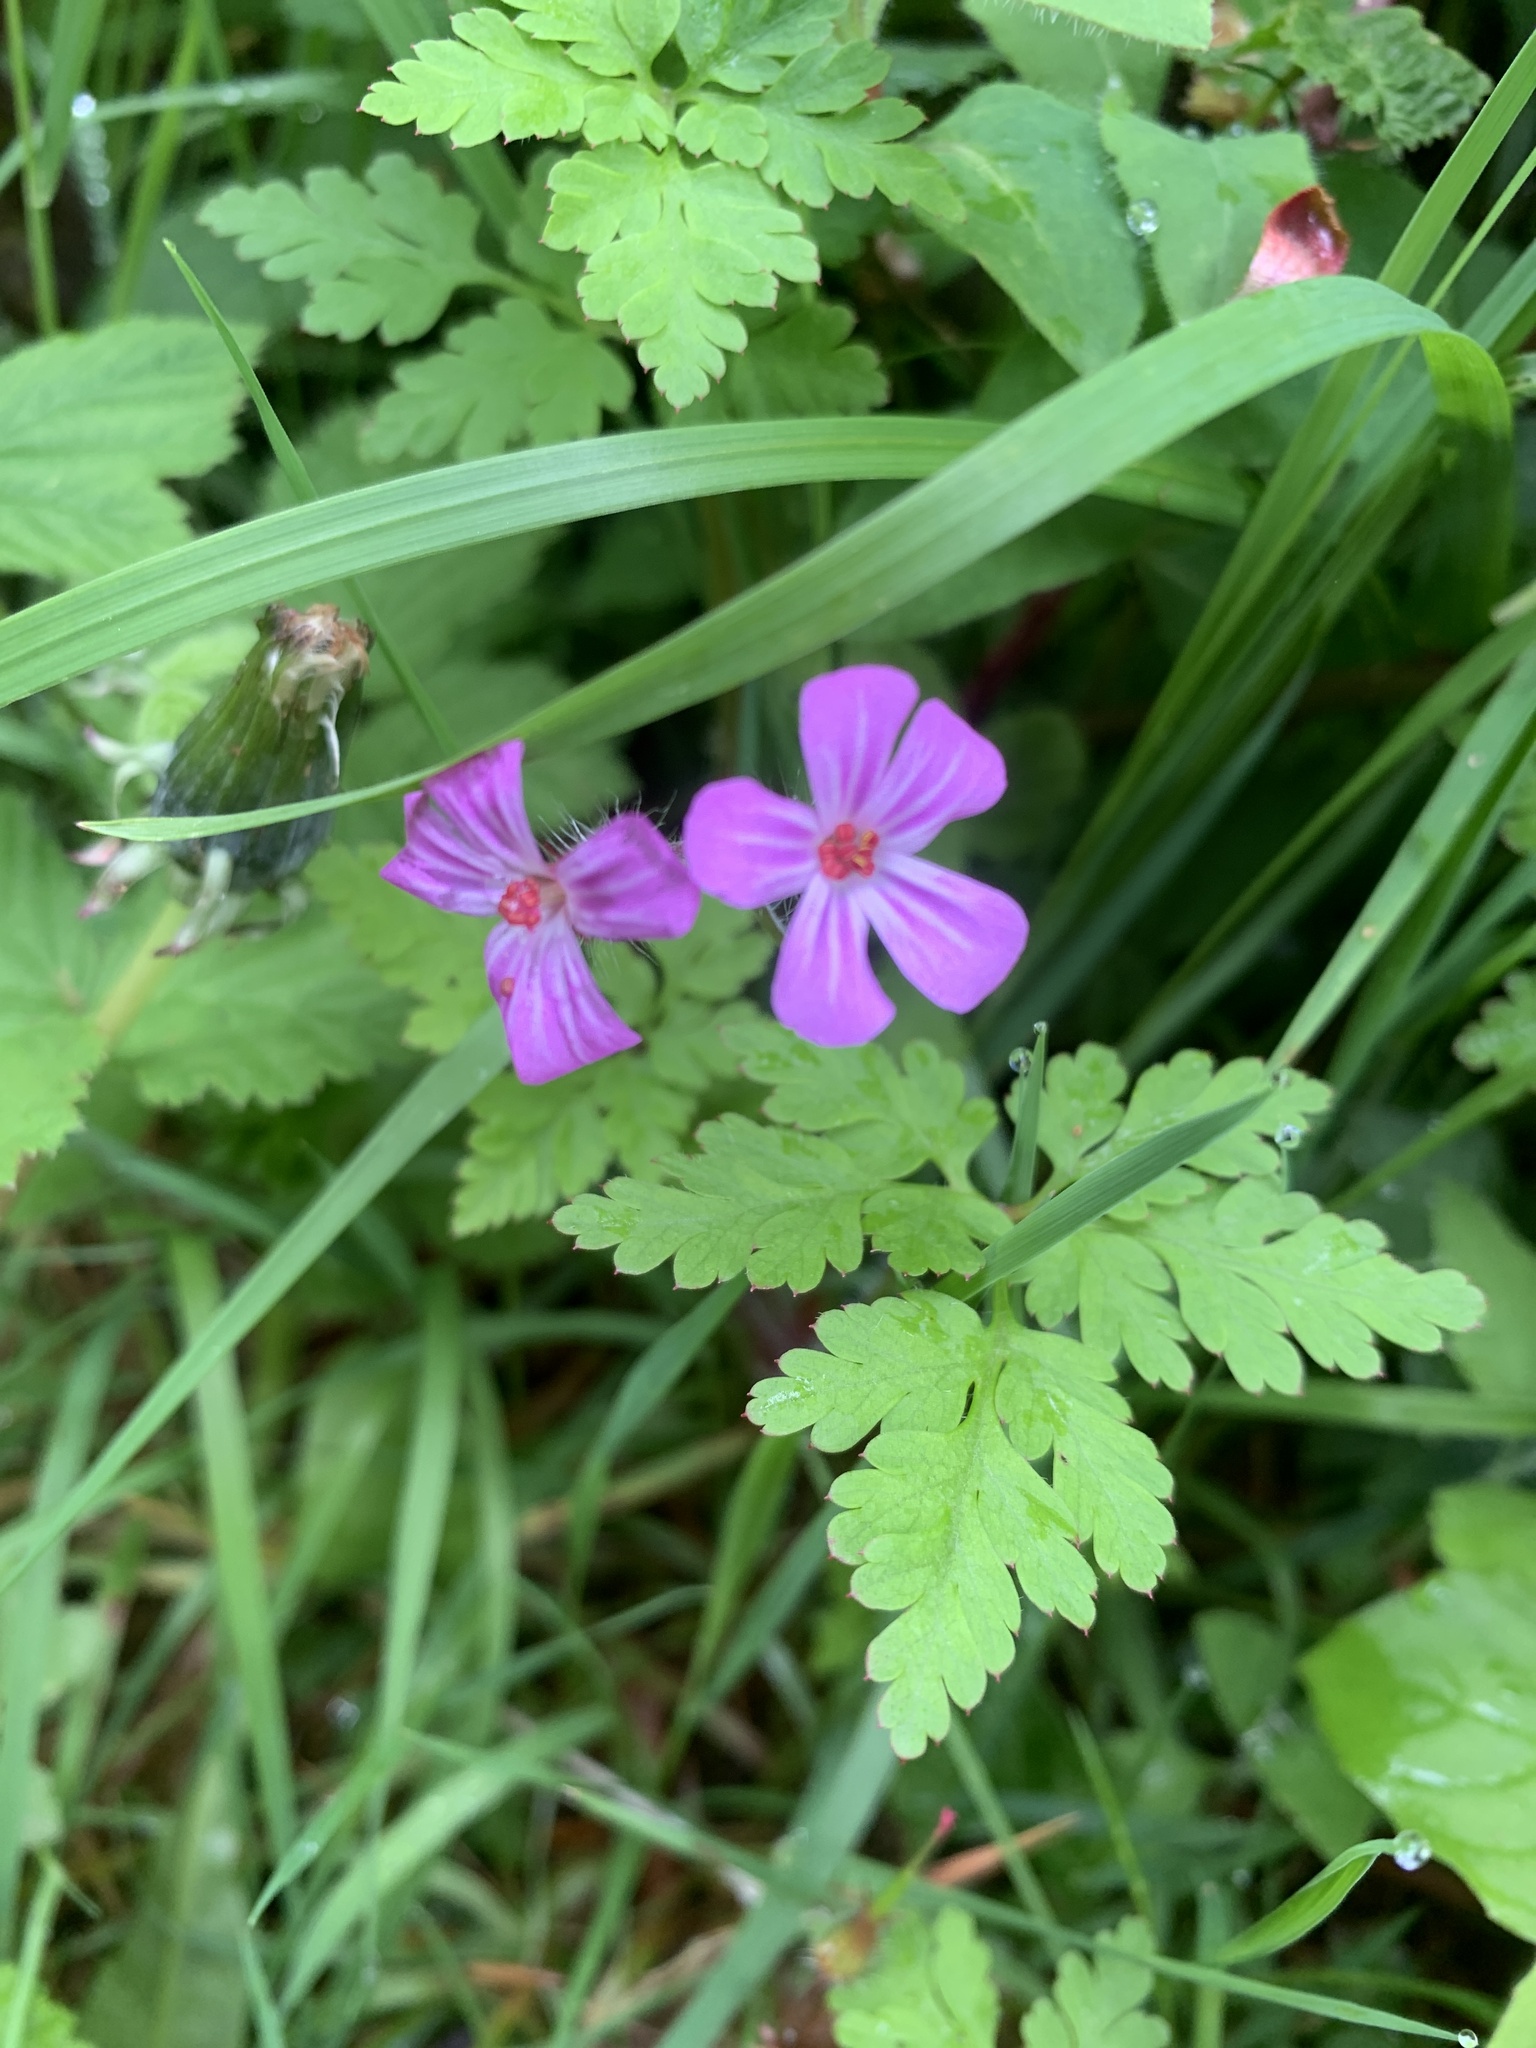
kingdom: Plantae
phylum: Tracheophyta
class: Magnoliopsida
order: Geraniales
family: Geraniaceae
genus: Geranium
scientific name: Geranium robertianum
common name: Herb-robert
